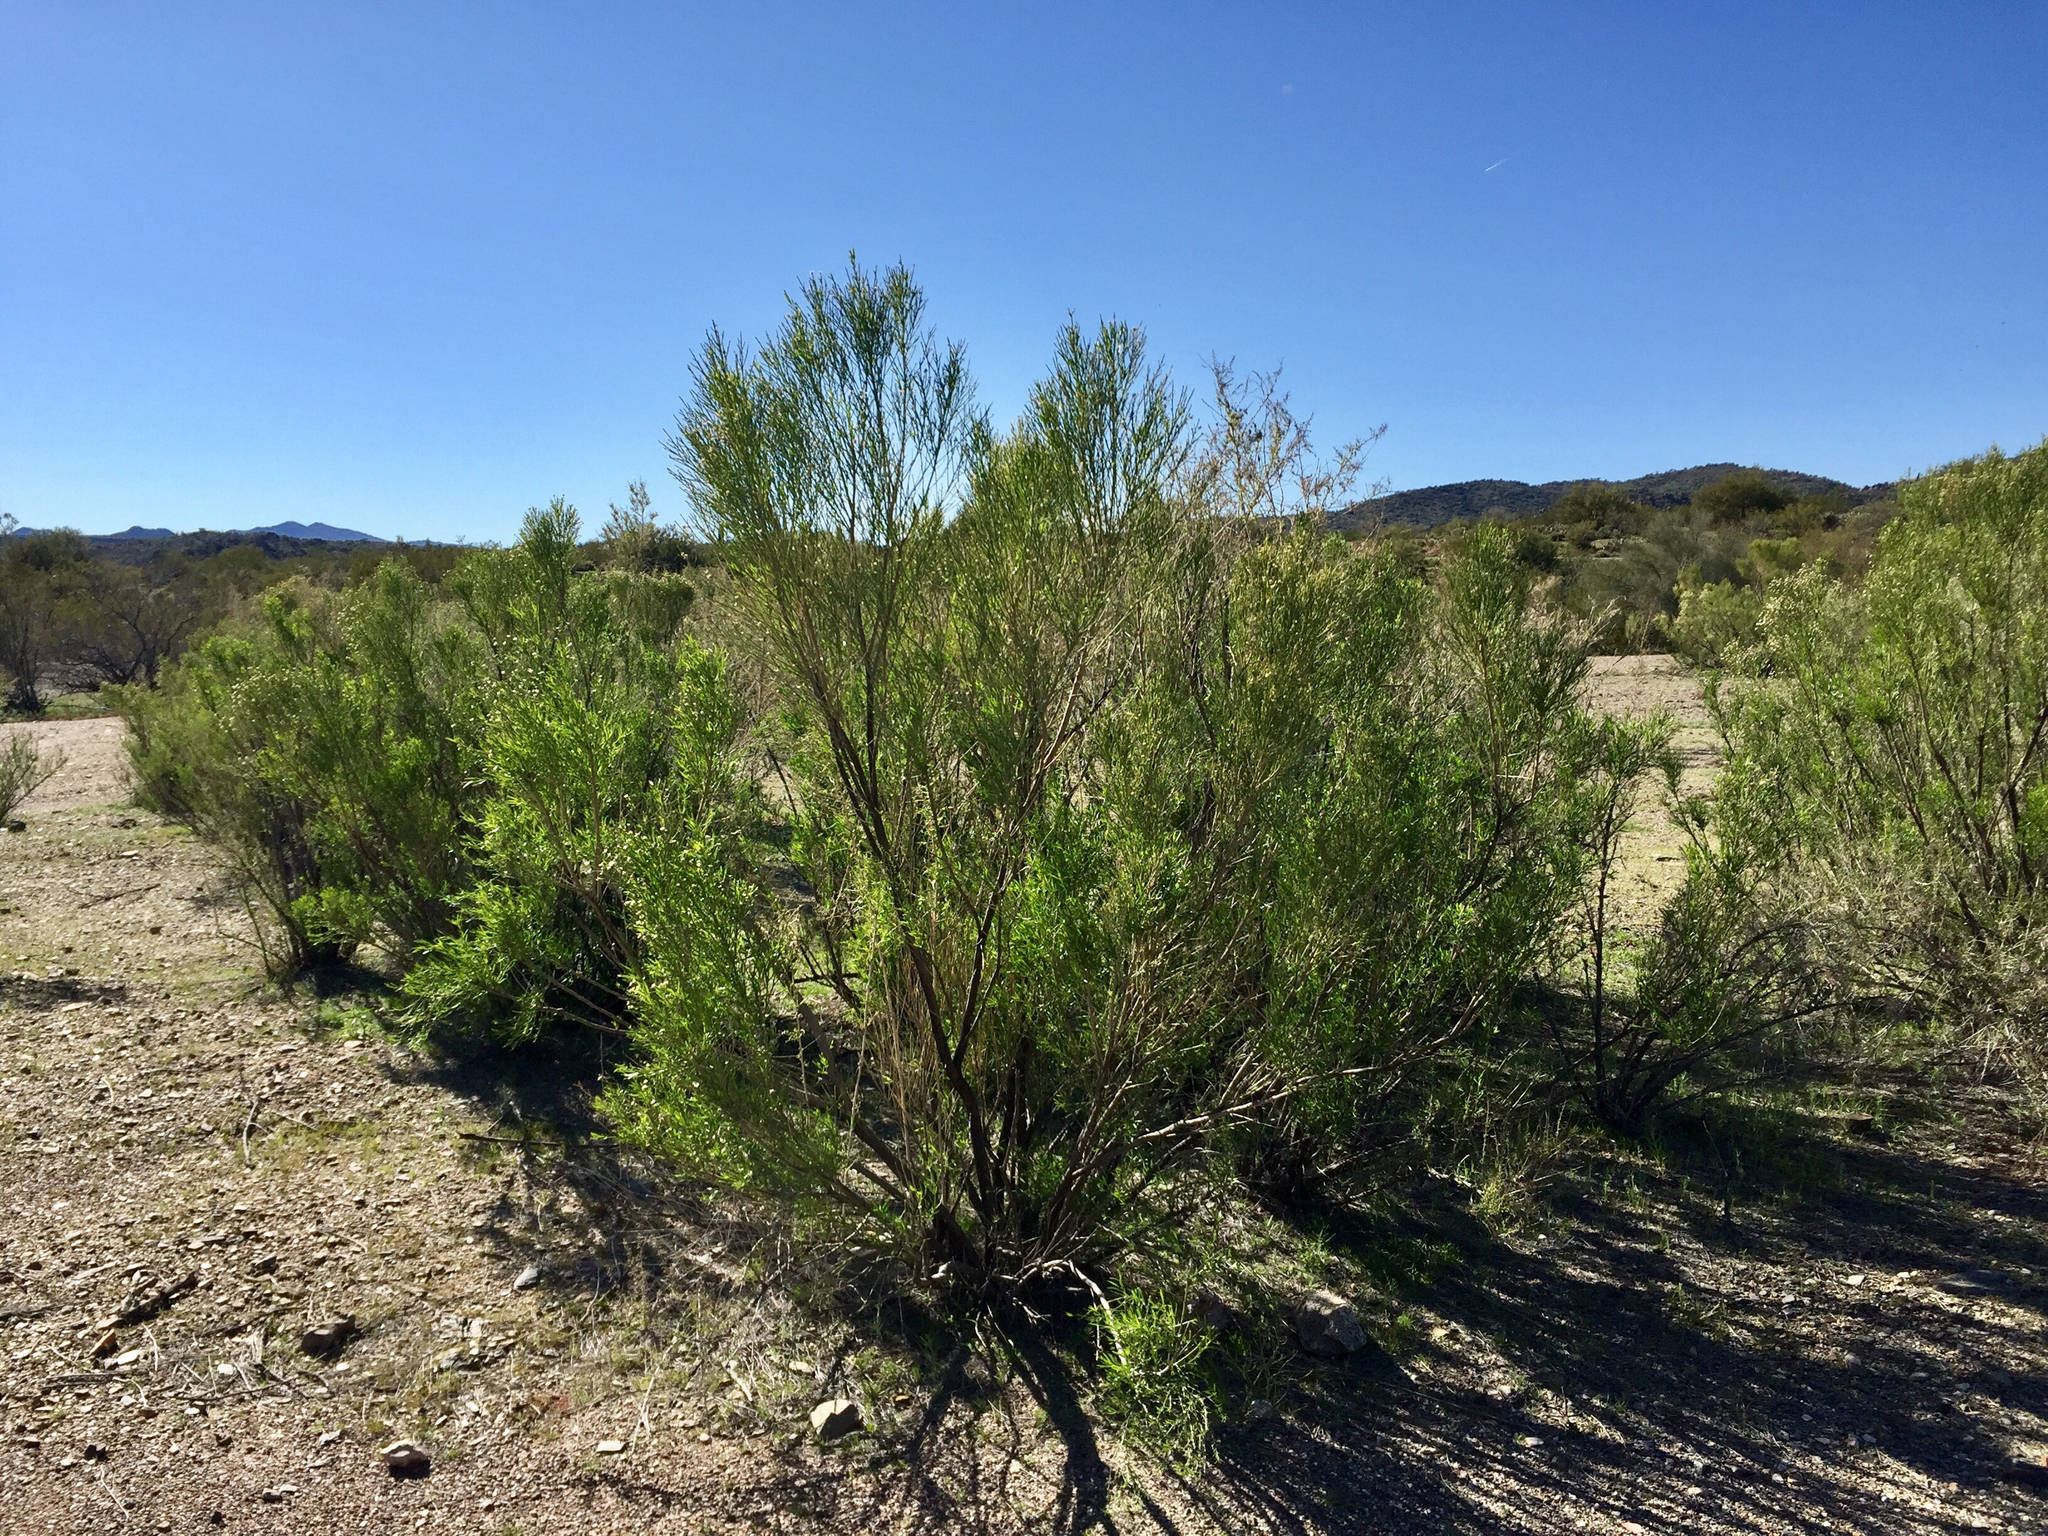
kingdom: Plantae
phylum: Tracheophyta
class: Magnoliopsida
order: Asterales
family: Asteraceae
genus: Baccharis
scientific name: Baccharis sarothroides
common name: Desert-broom
